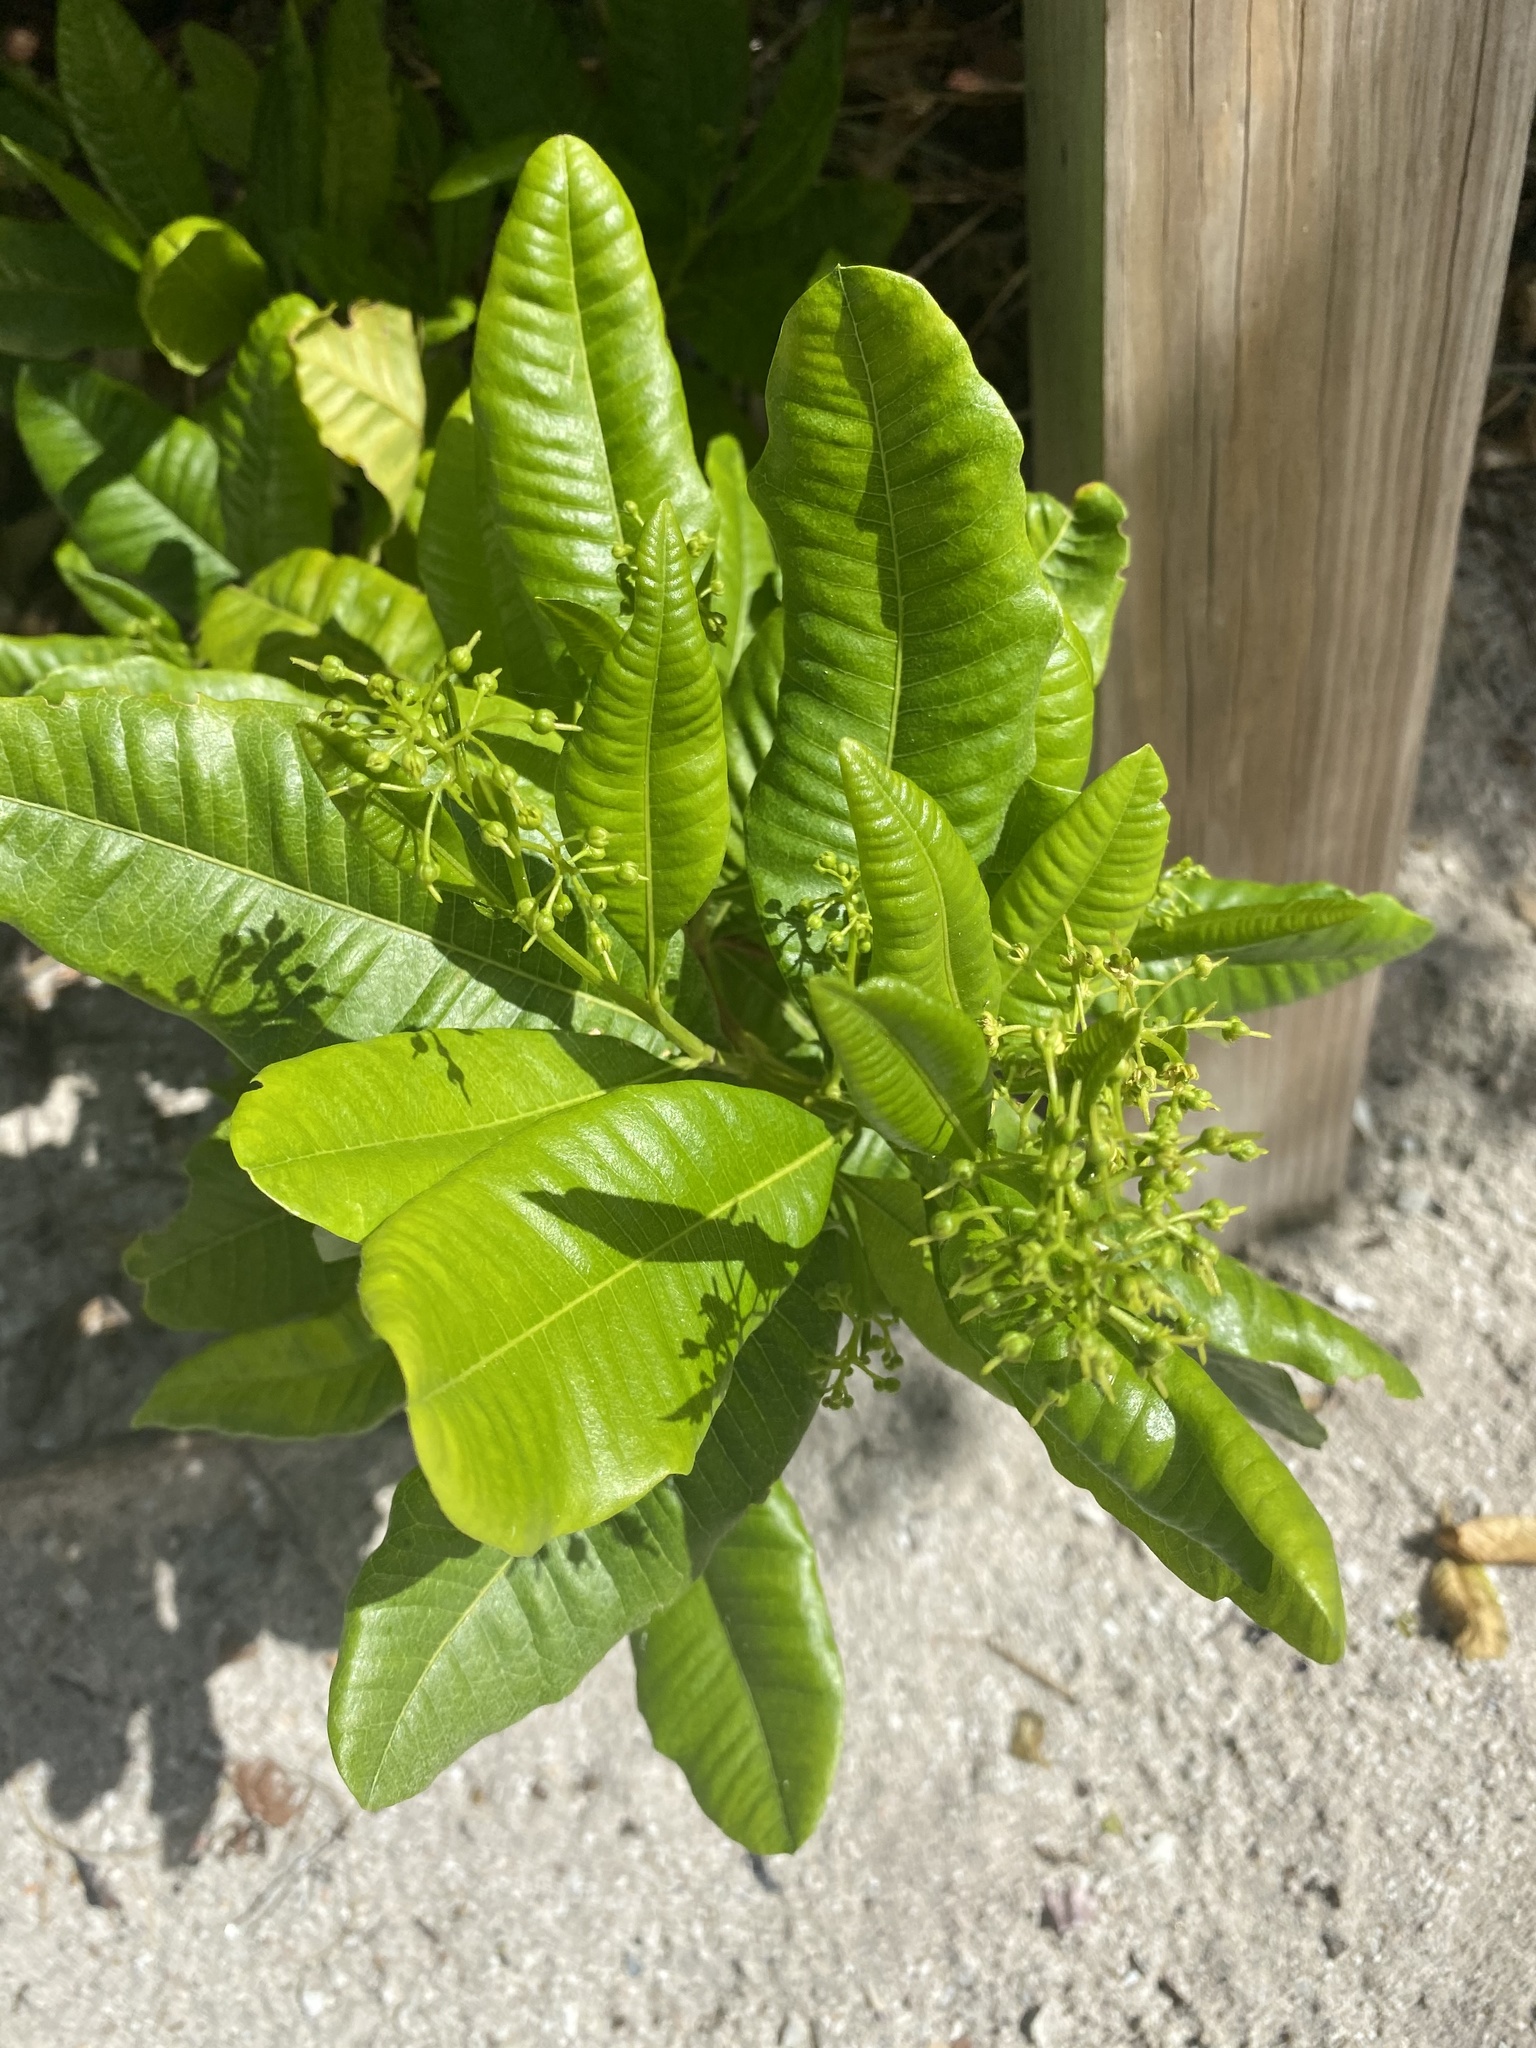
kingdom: Plantae
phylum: Tracheophyta
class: Magnoliopsida
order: Sapindales
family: Sapindaceae
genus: Dodonaea
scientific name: Dodonaea viscosa
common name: Hopbush
